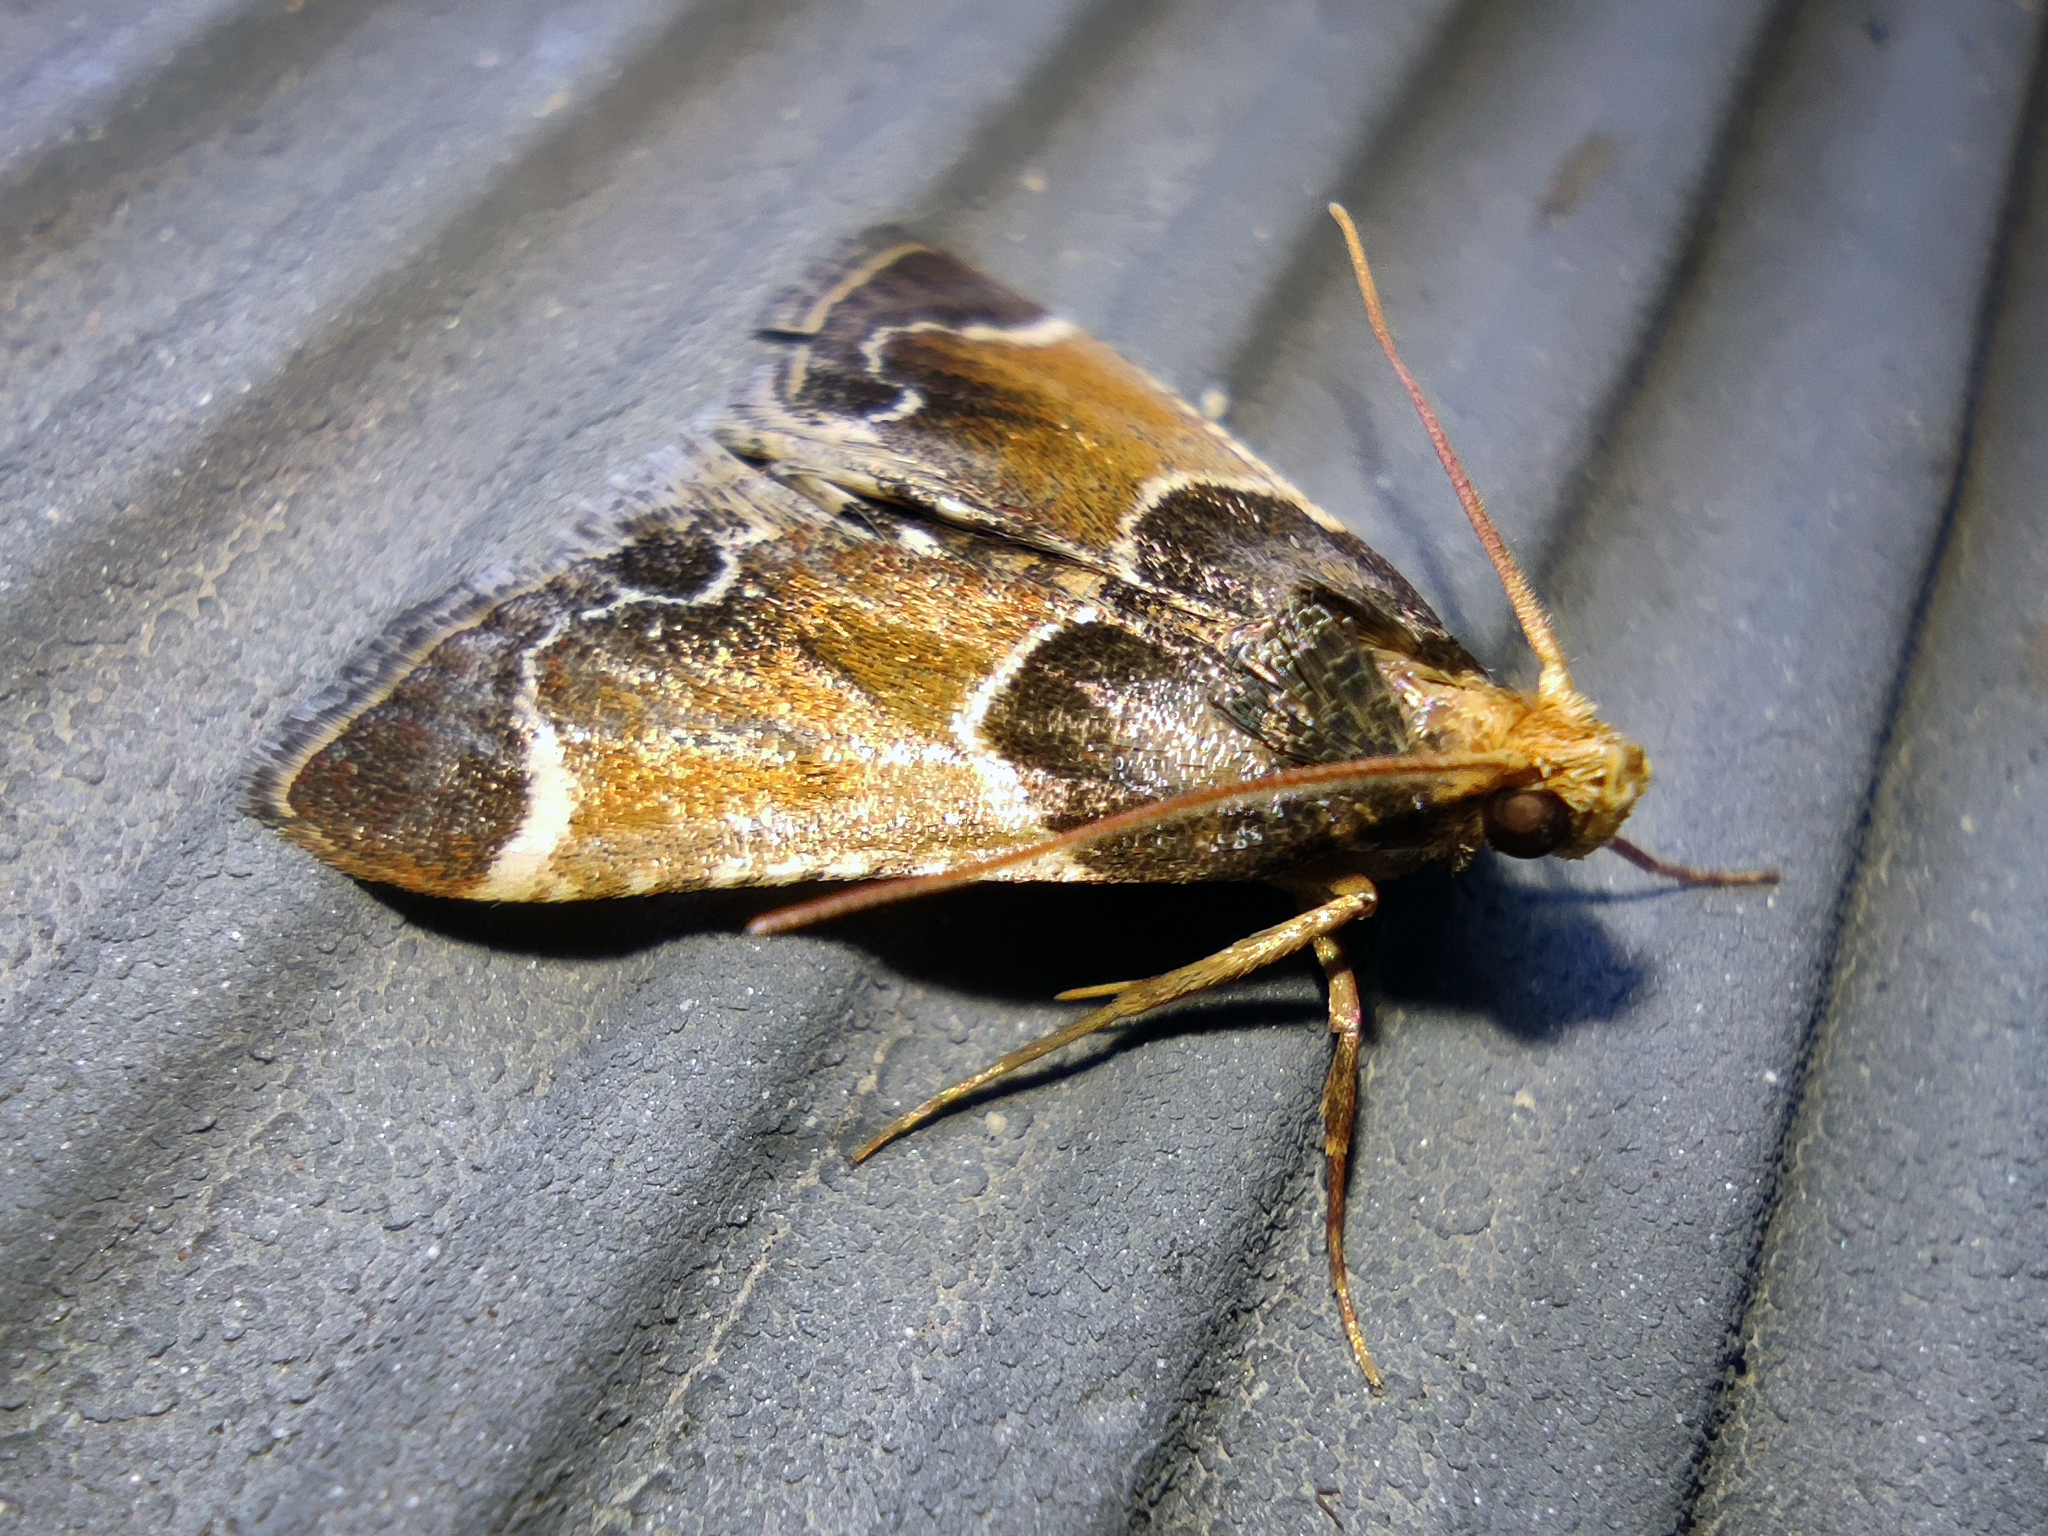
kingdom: Animalia
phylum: Arthropoda
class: Insecta
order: Lepidoptera
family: Pyralidae
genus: Pyralis
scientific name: Pyralis farinalis
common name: Meal moth
